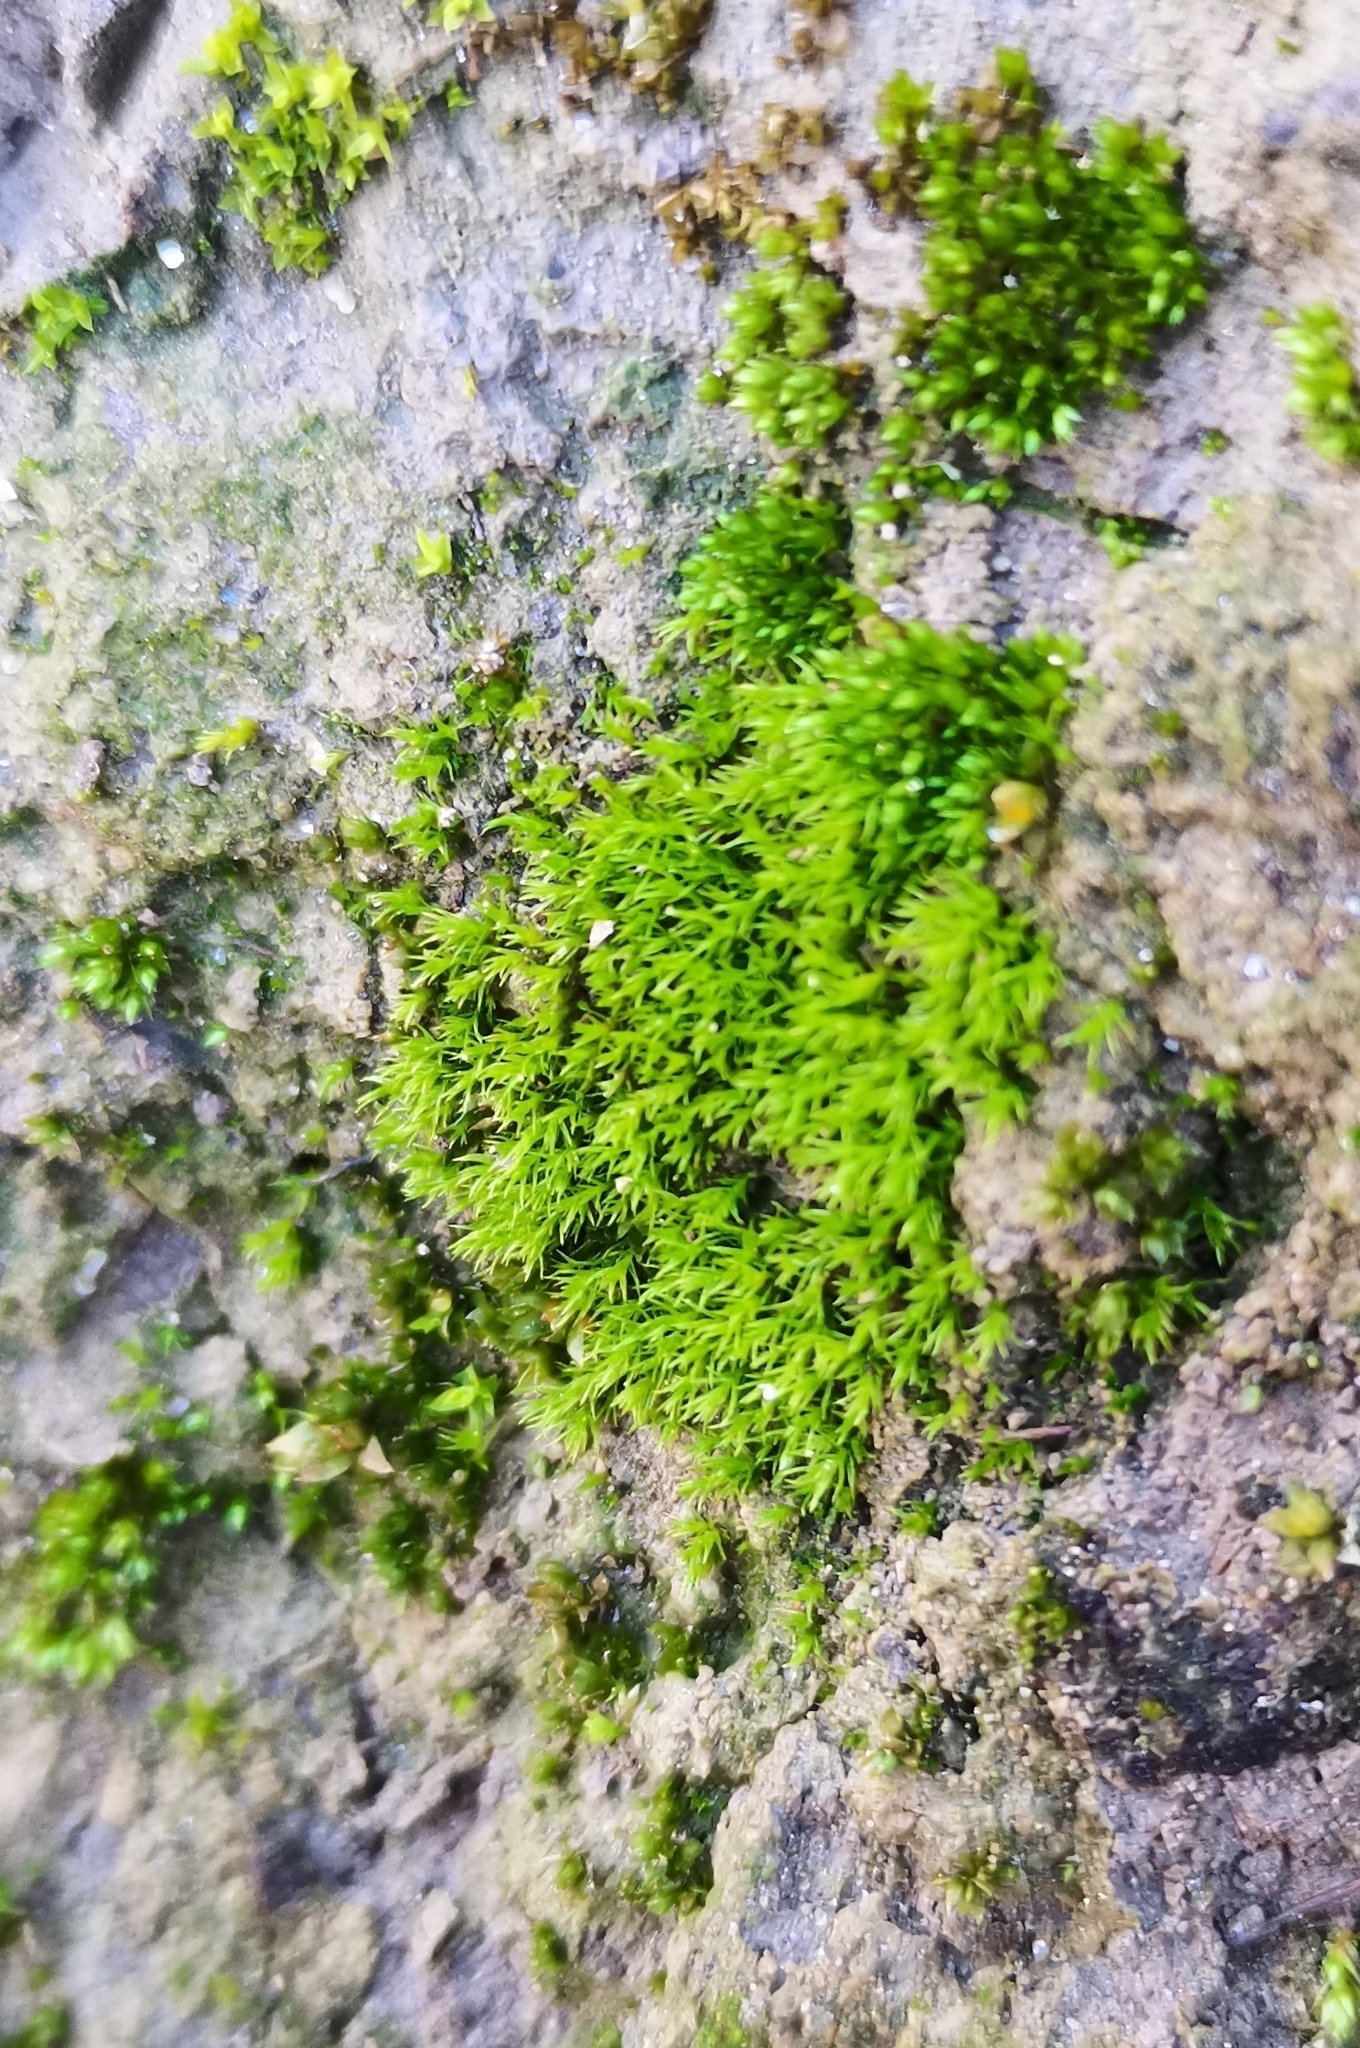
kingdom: Plantae
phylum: Bryophyta
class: Bryopsida
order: Dicranales
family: Dicranellaceae
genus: Dicranella
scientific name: Dicranella staphylina
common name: Field forklet moss
